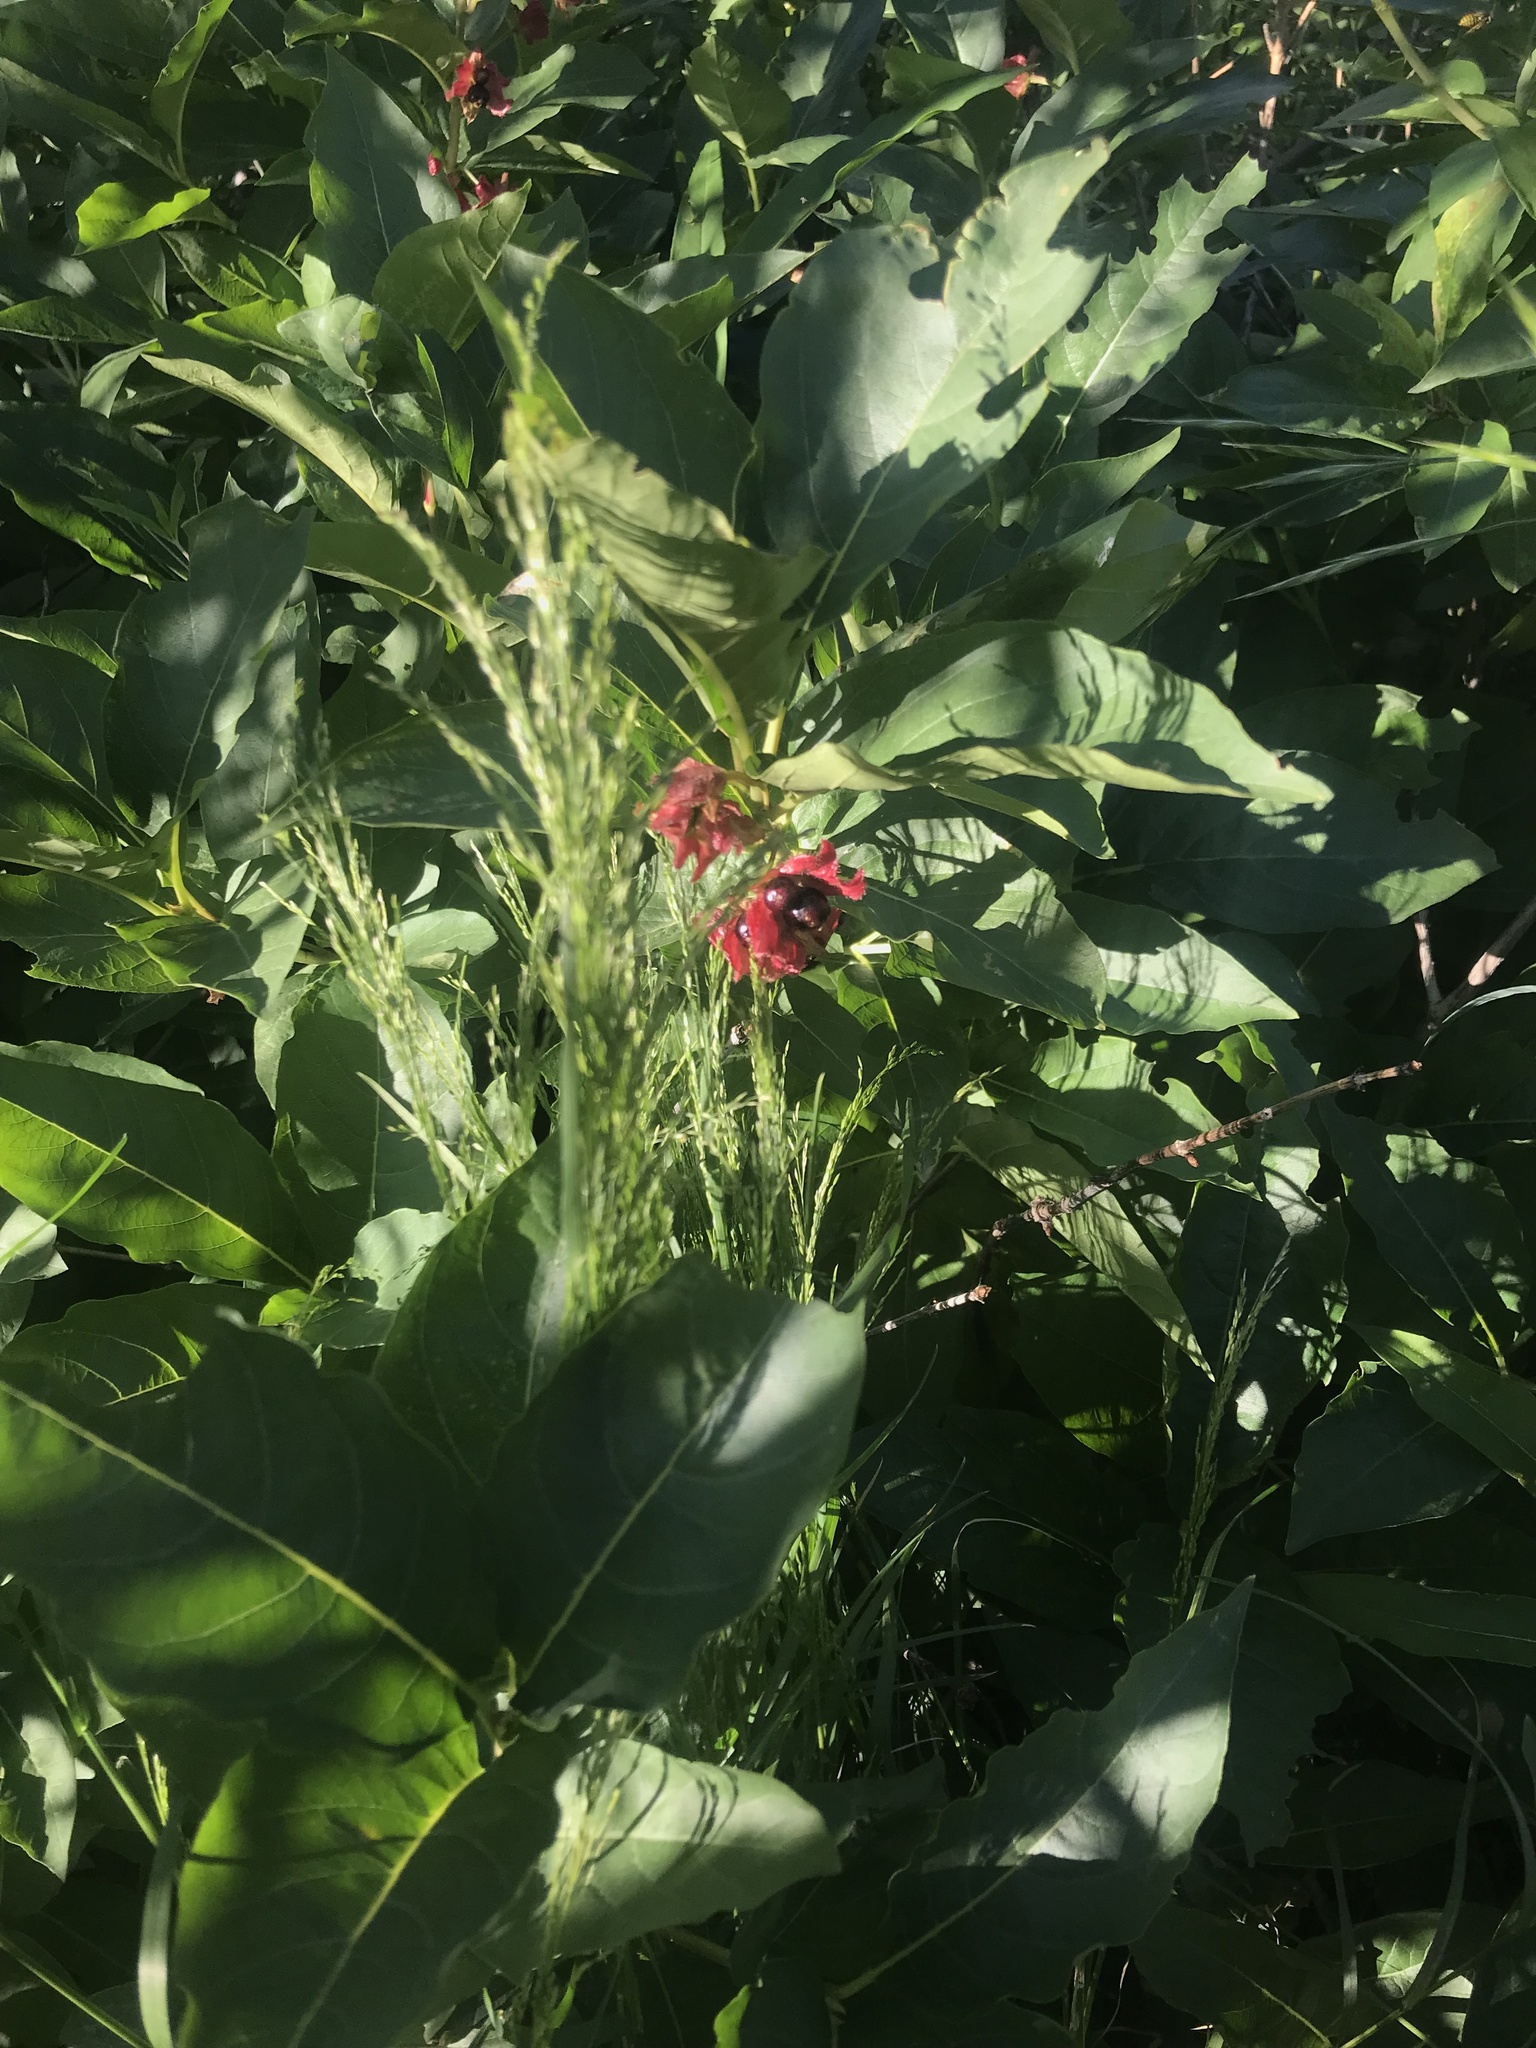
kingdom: Plantae
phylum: Tracheophyta
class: Magnoliopsida
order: Dipsacales
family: Caprifoliaceae
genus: Lonicera
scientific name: Lonicera involucrata
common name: Californian honeysuckle
